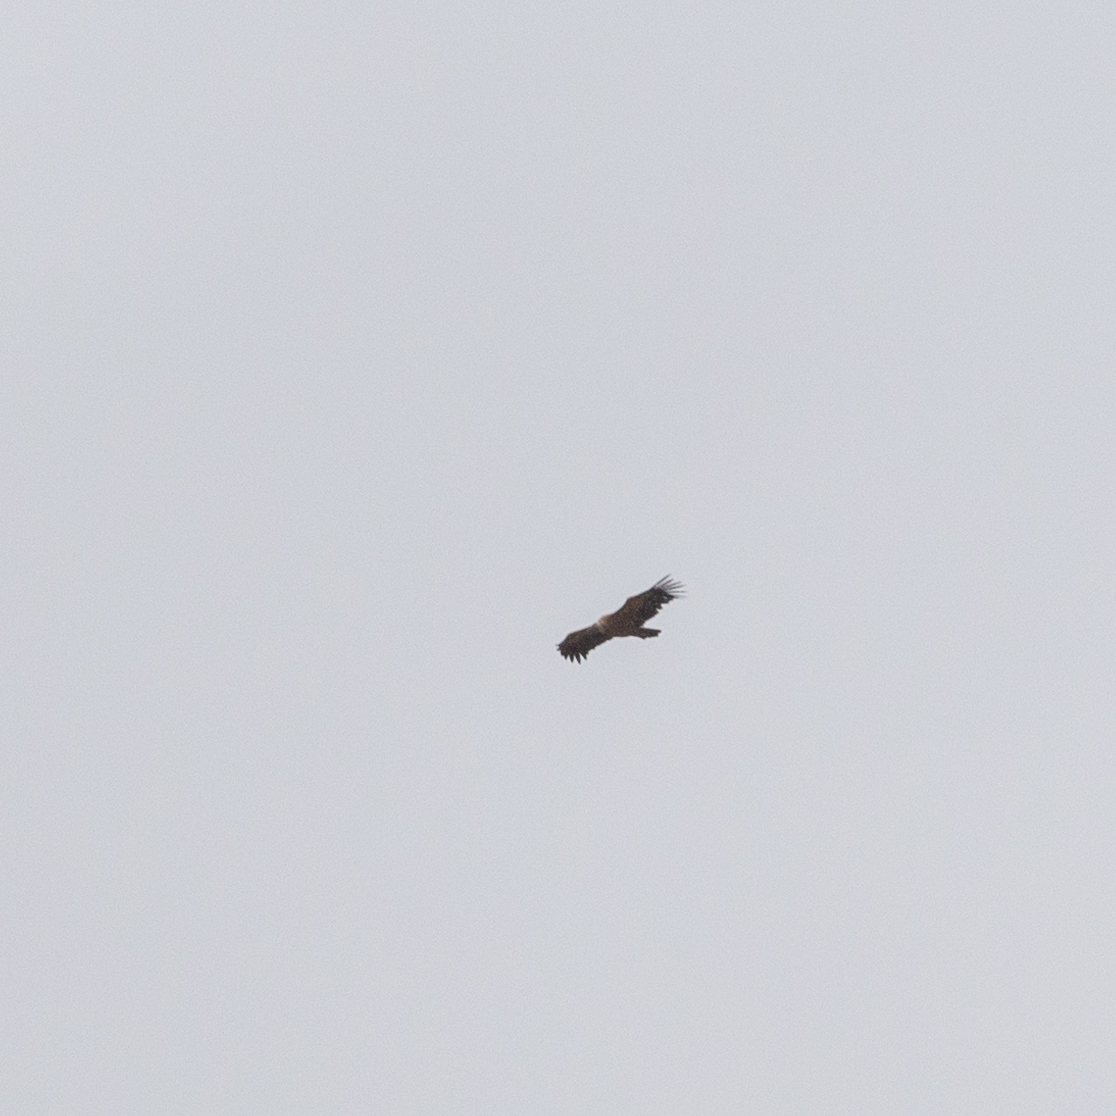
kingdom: Animalia
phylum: Chordata
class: Aves
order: Accipitriformes
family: Accipitridae
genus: Gyps
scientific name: Gyps fulvus
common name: Griffon vulture
